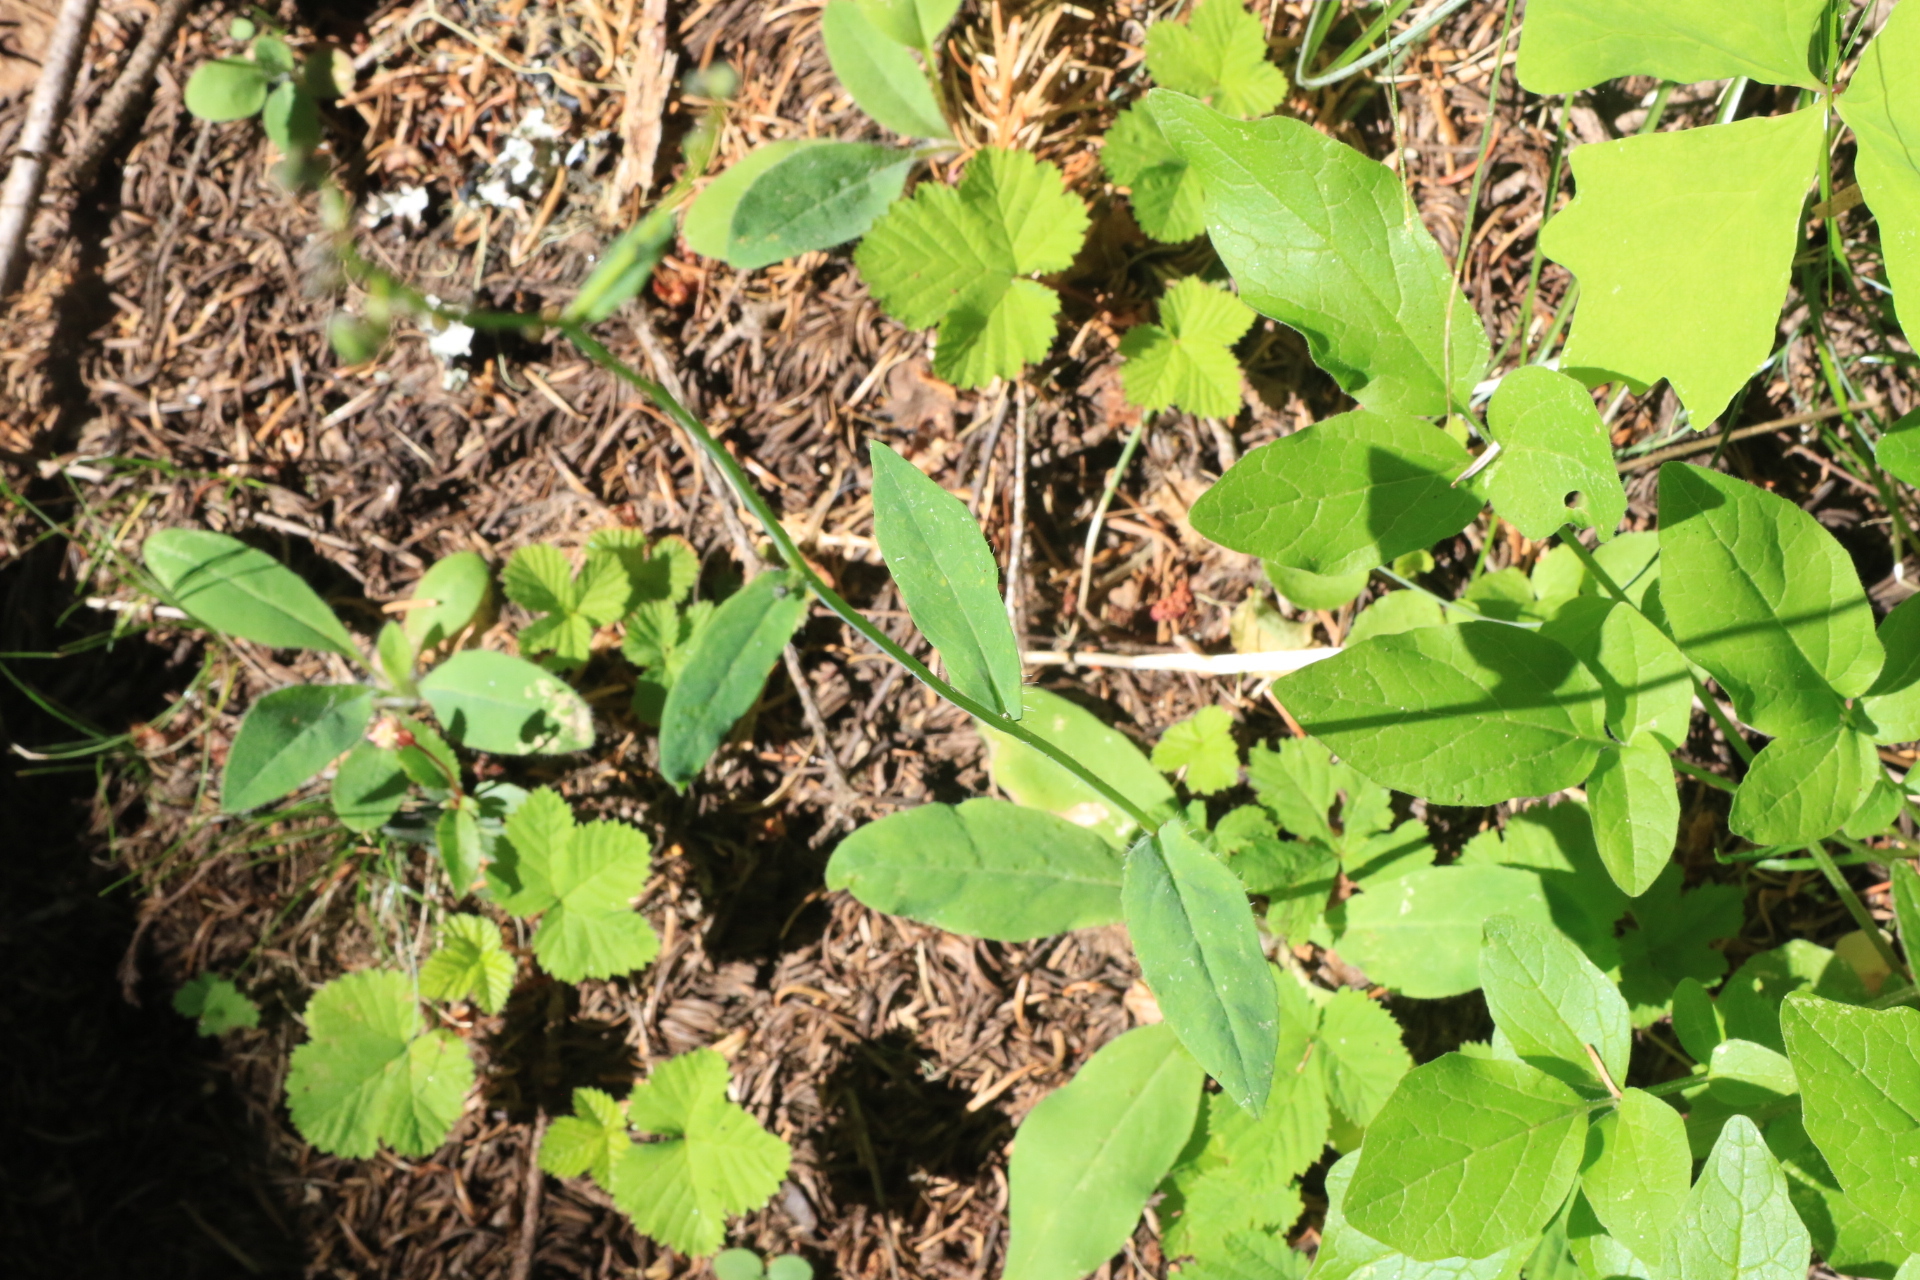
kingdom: Plantae
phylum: Tracheophyta
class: Magnoliopsida
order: Asterales
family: Asteraceae
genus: Hieracium
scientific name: Hieracium albiflorum
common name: White hawkweed
